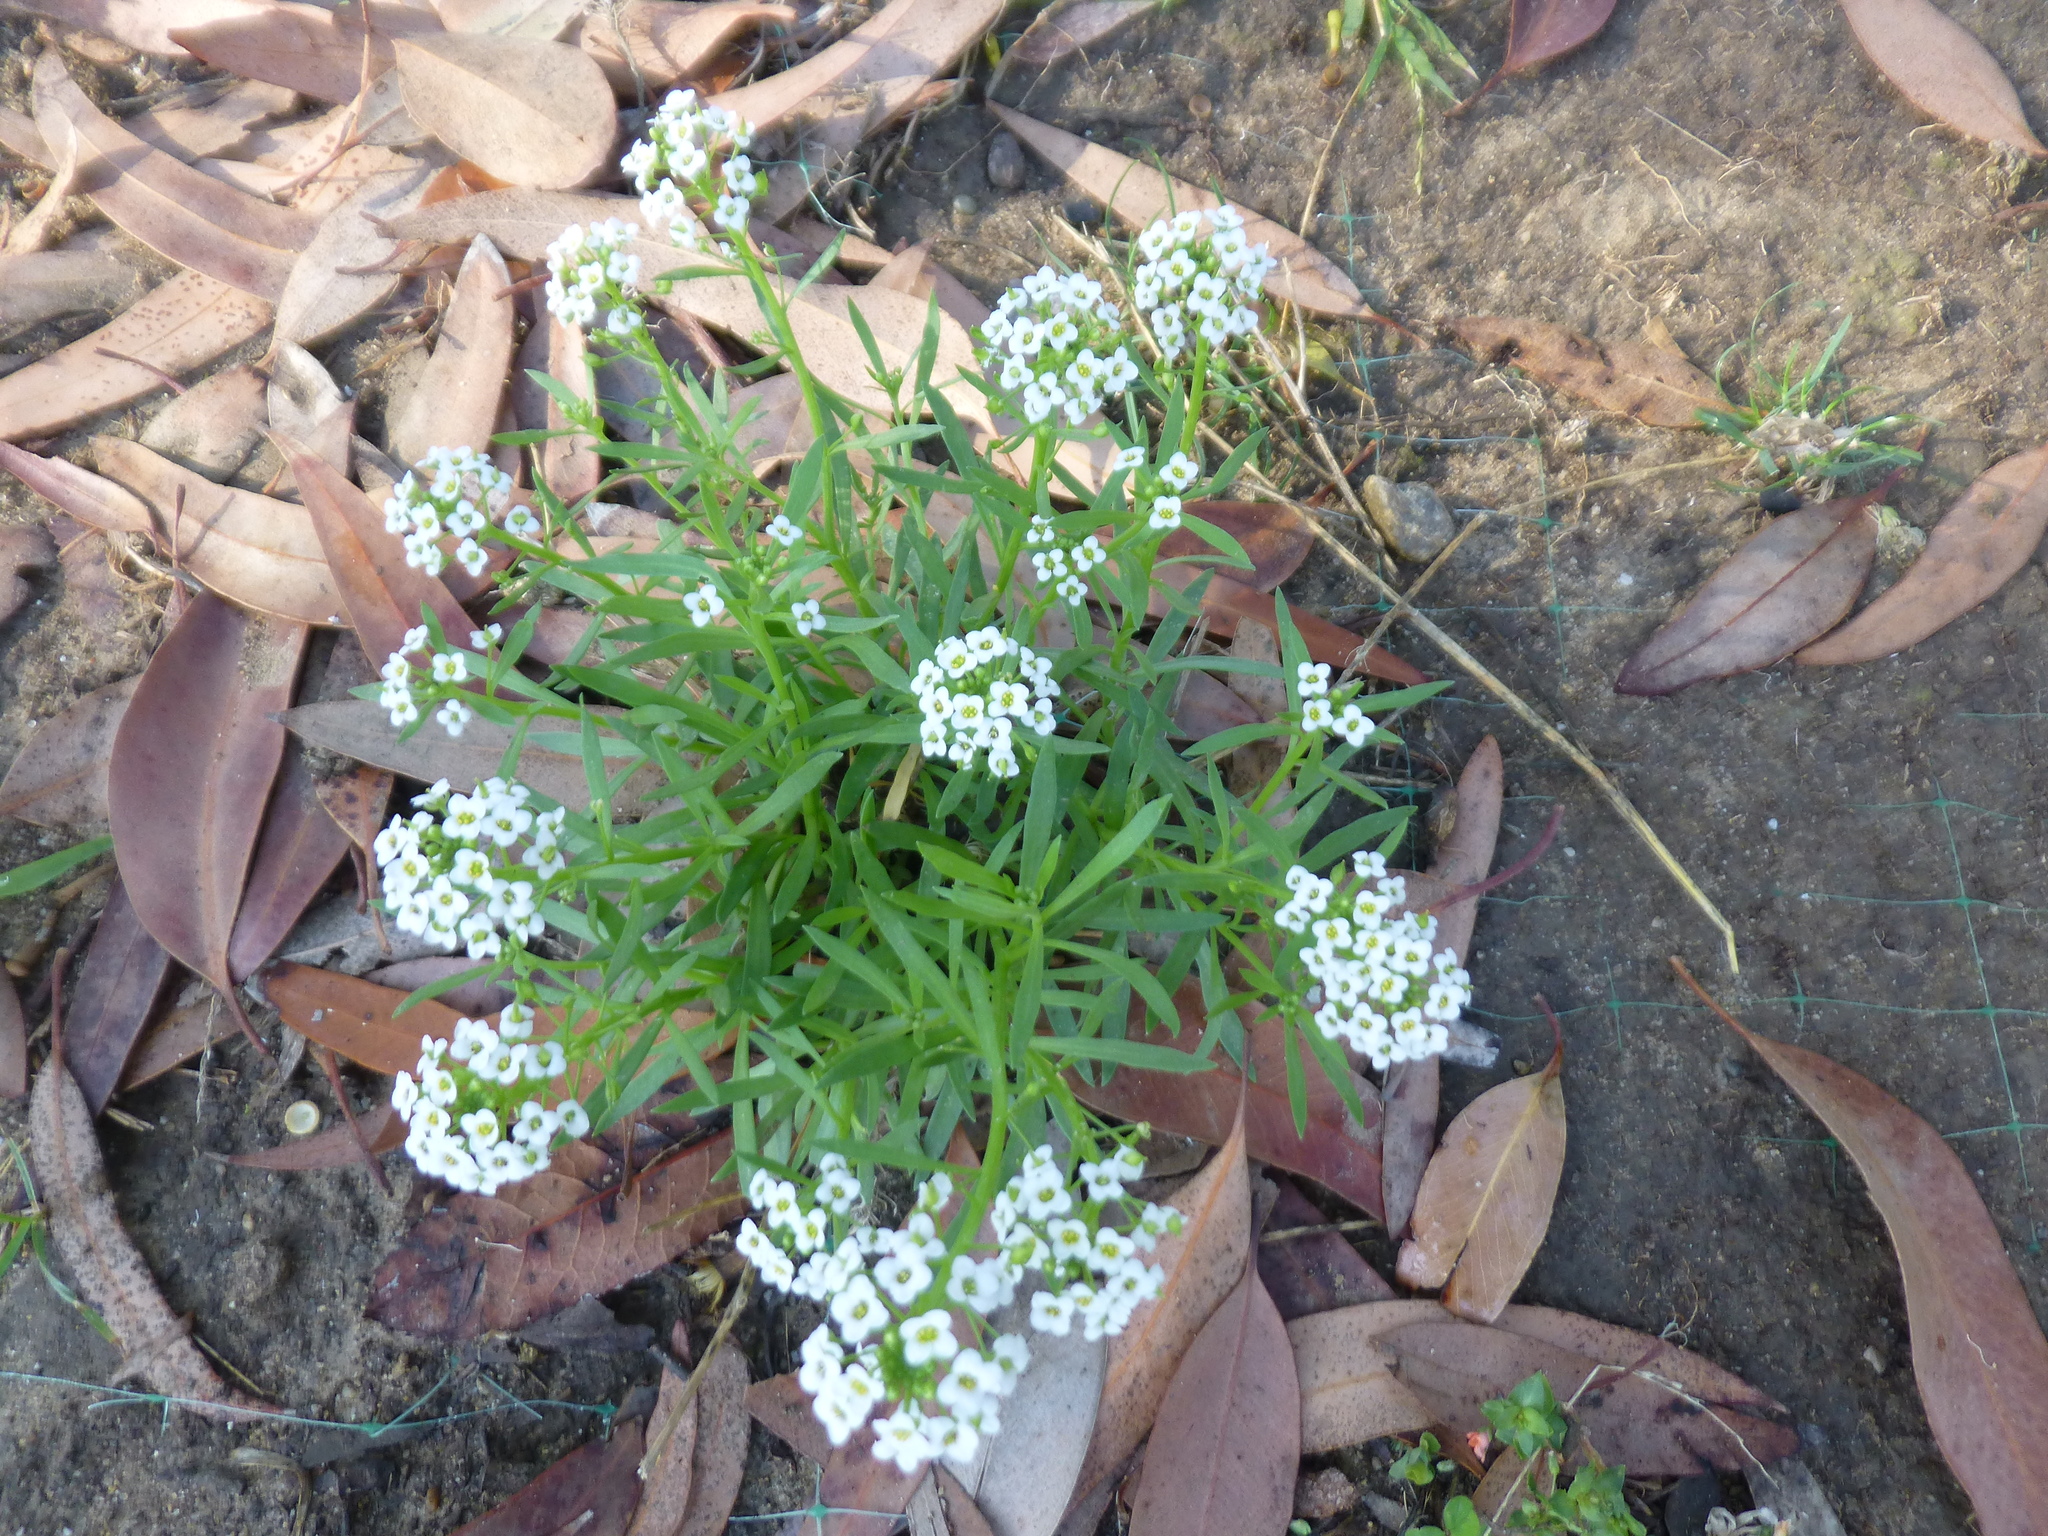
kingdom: Plantae
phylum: Tracheophyta
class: Magnoliopsida
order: Brassicales
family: Brassicaceae
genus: Lobularia
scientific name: Lobularia maritima
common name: Sweet alison
